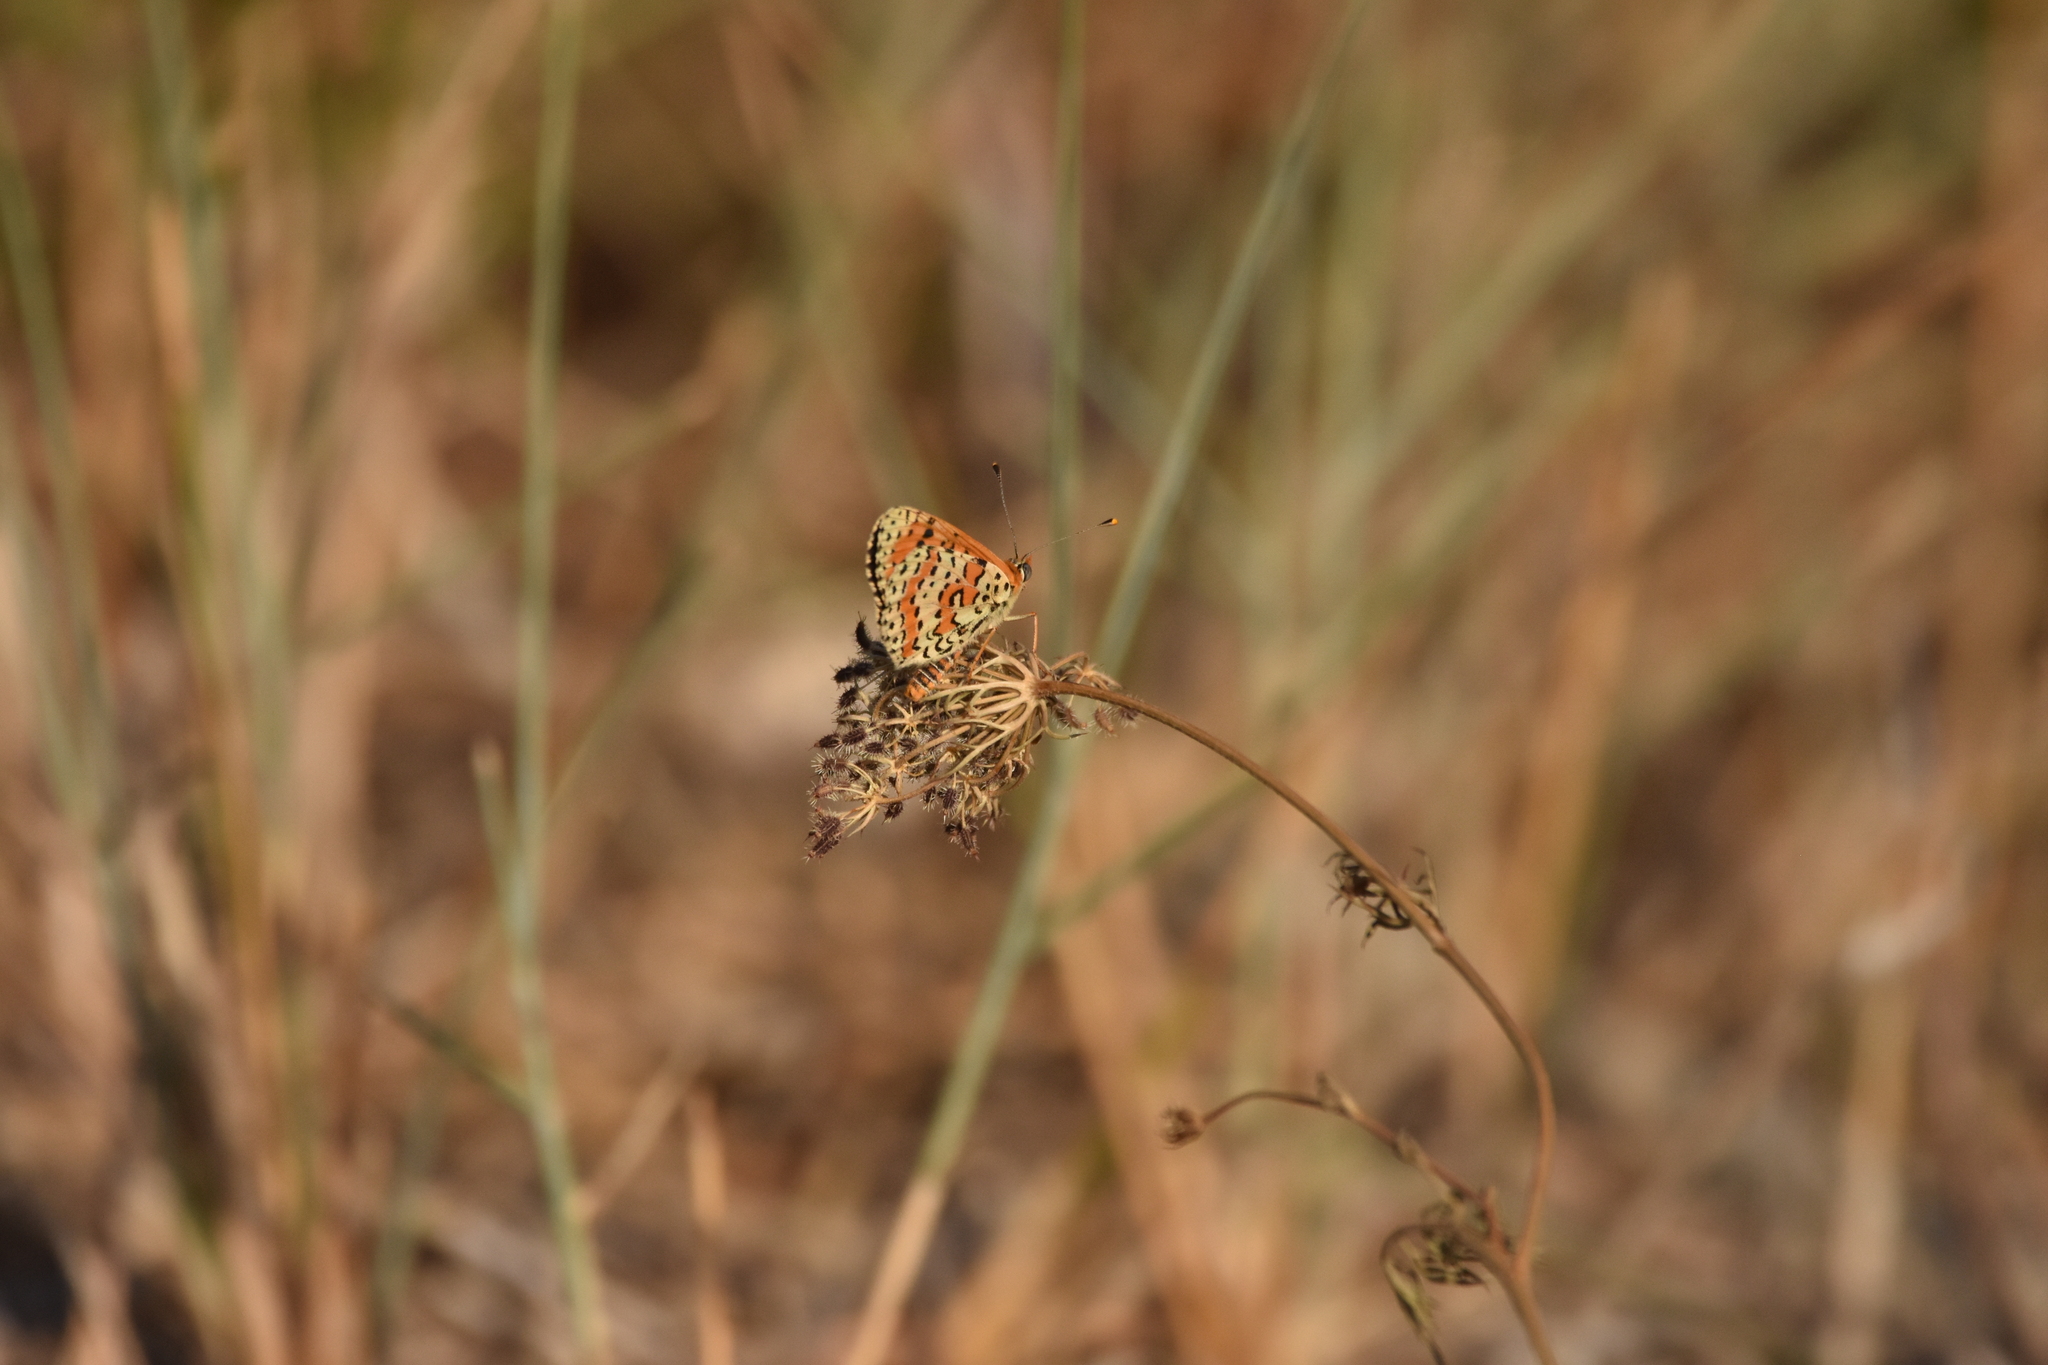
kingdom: Animalia
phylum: Arthropoda
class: Insecta
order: Lepidoptera
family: Nymphalidae
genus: Melitaea
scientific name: Melitaea didyma
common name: Spotted fritillary
